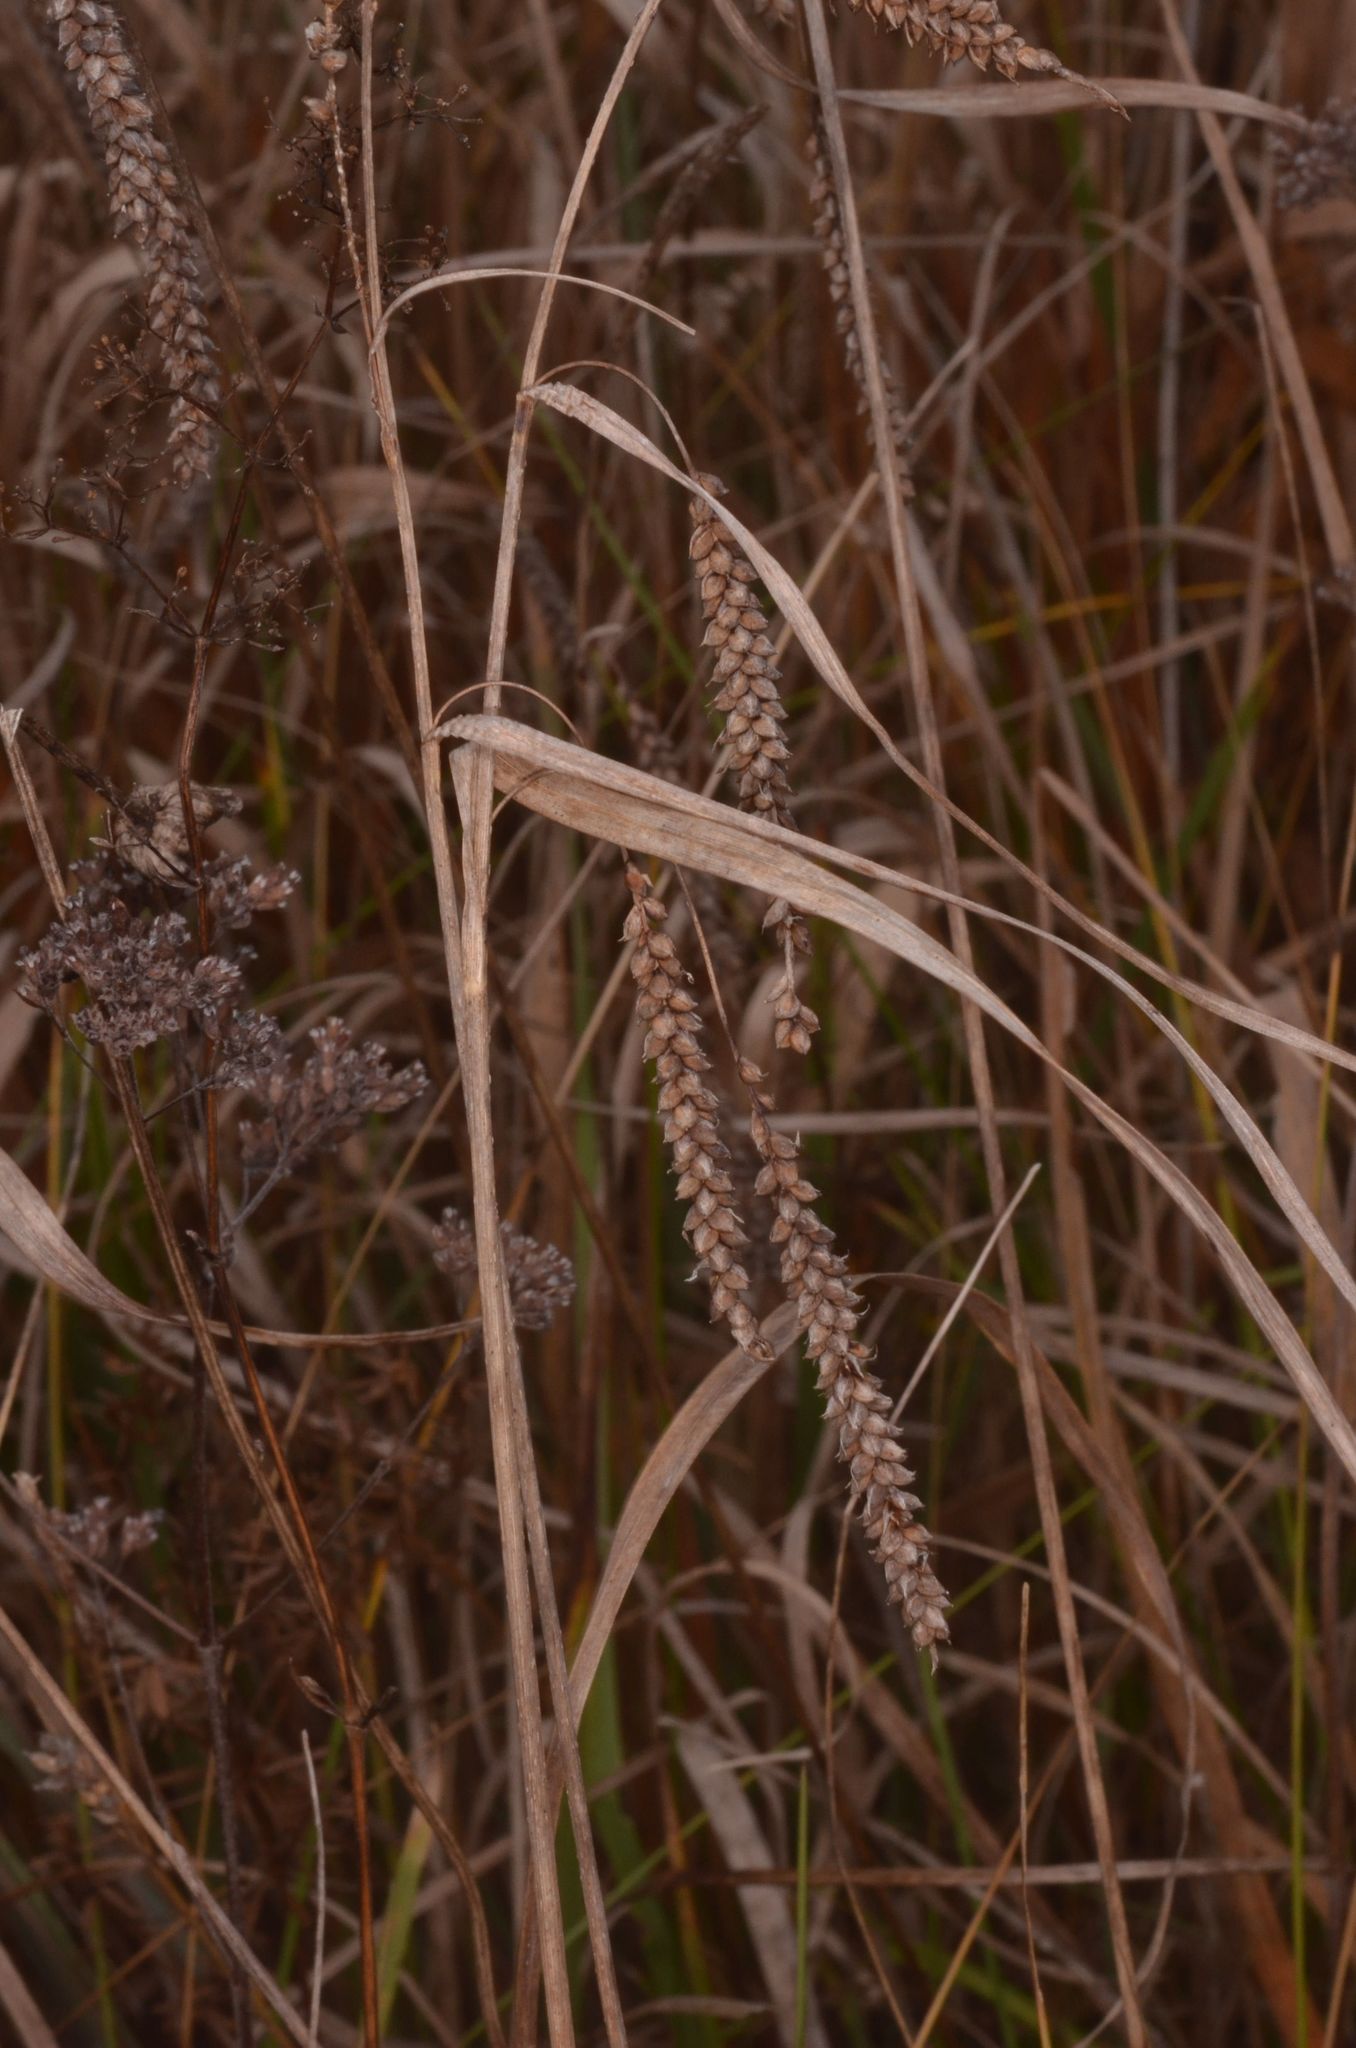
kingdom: Plantae
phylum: Tracheophyta
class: Liliopsida
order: Poales
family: Cyperaceae
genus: Carex
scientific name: Carex flacca
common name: Glaucous sedge
